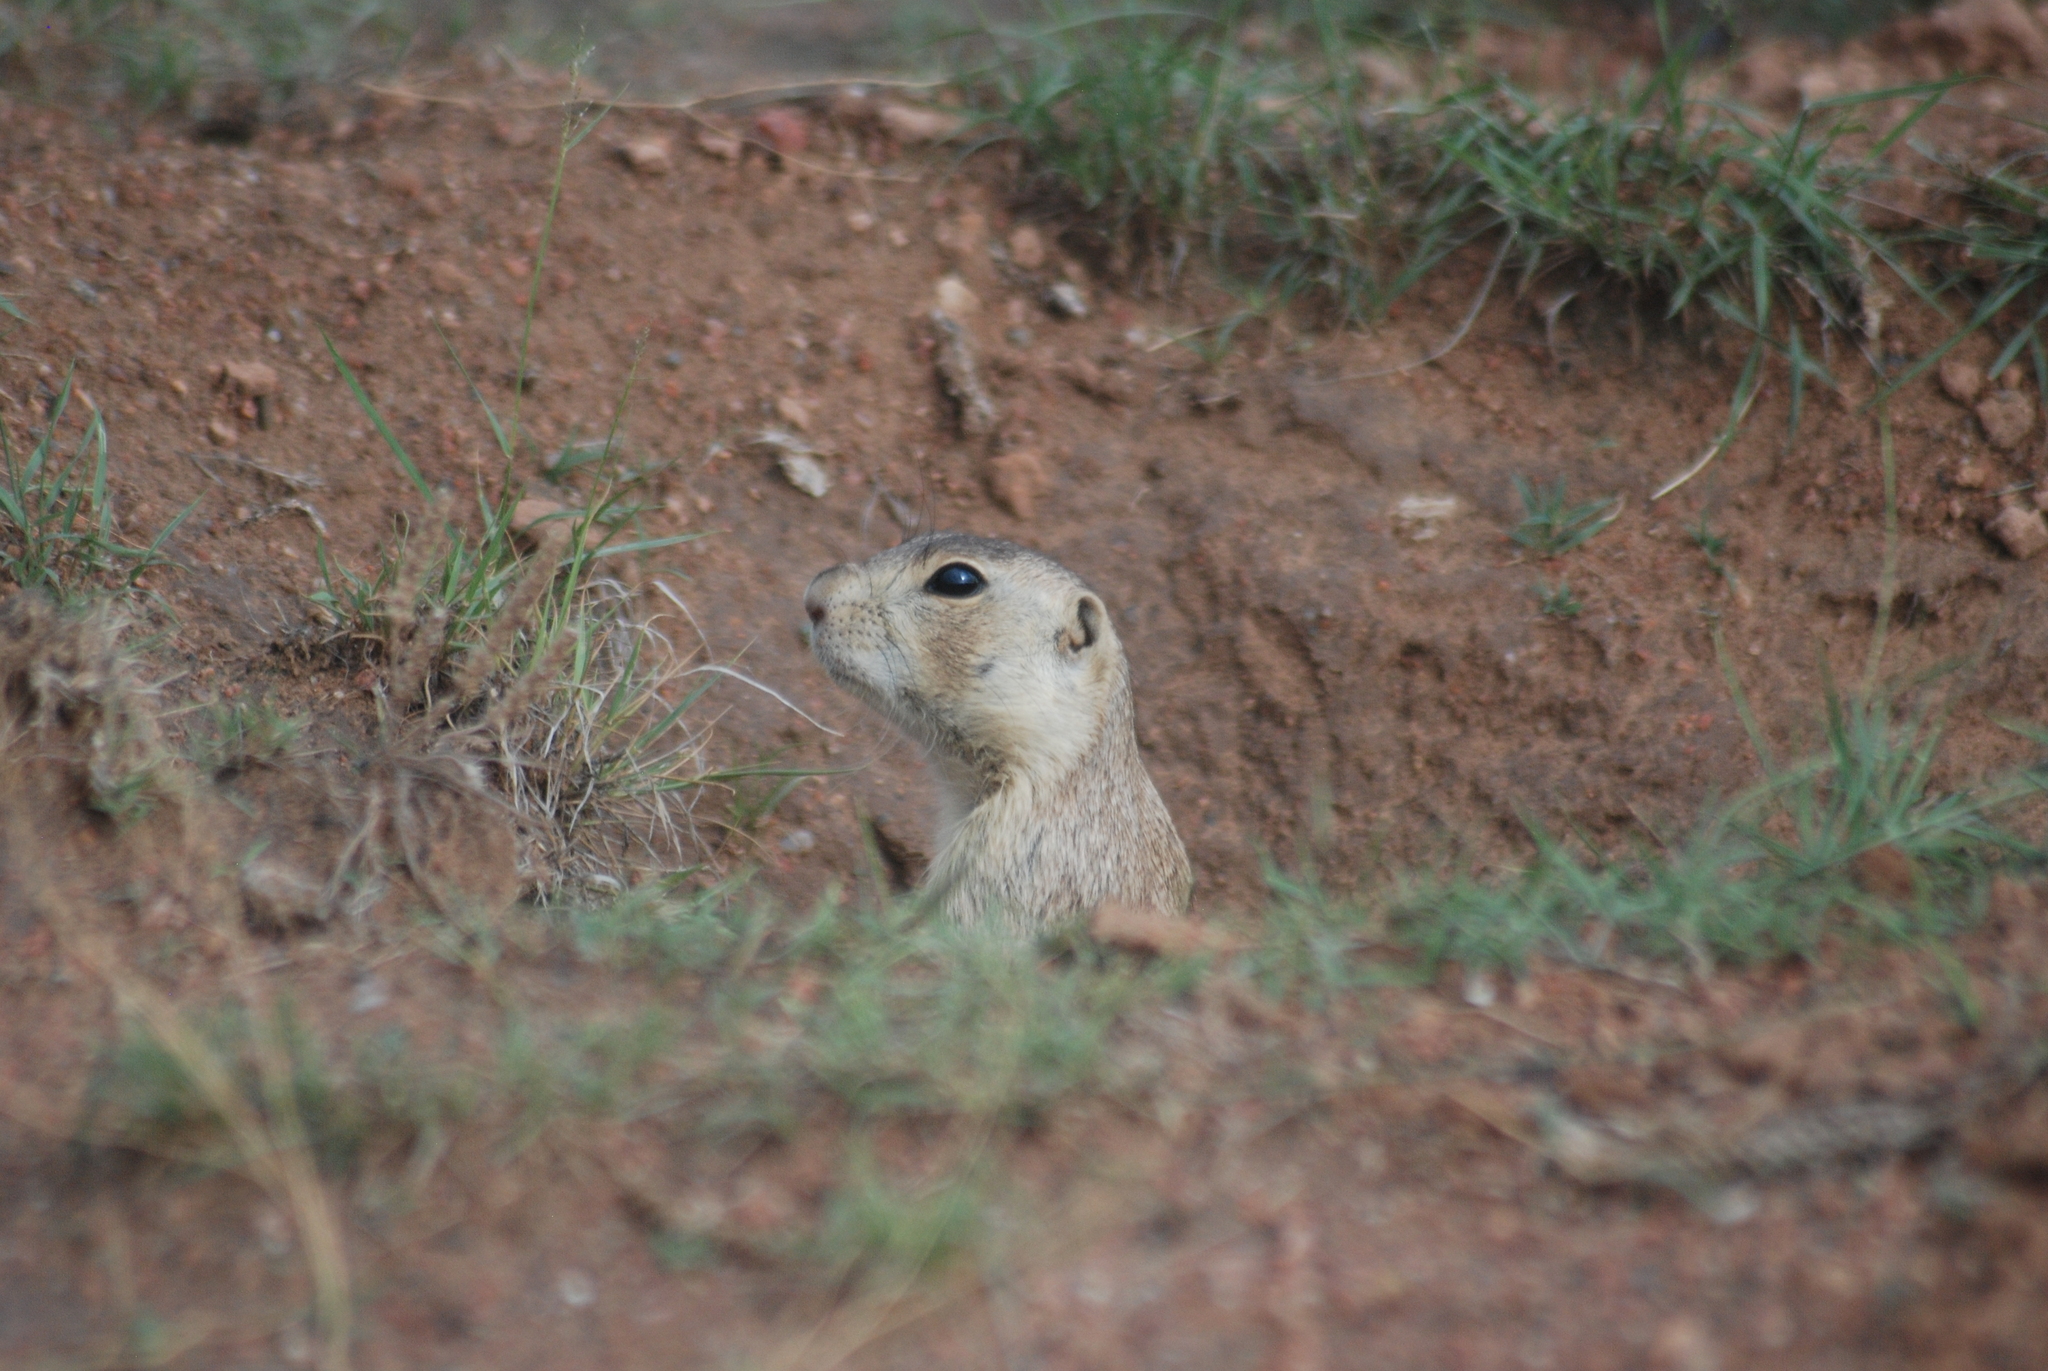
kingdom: Animalia
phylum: Chordata
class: Mammalia
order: Rodentia
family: Sciuridae
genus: Cynomys
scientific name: Cynomys gunnisoni
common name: Gunnison's prairie dog
